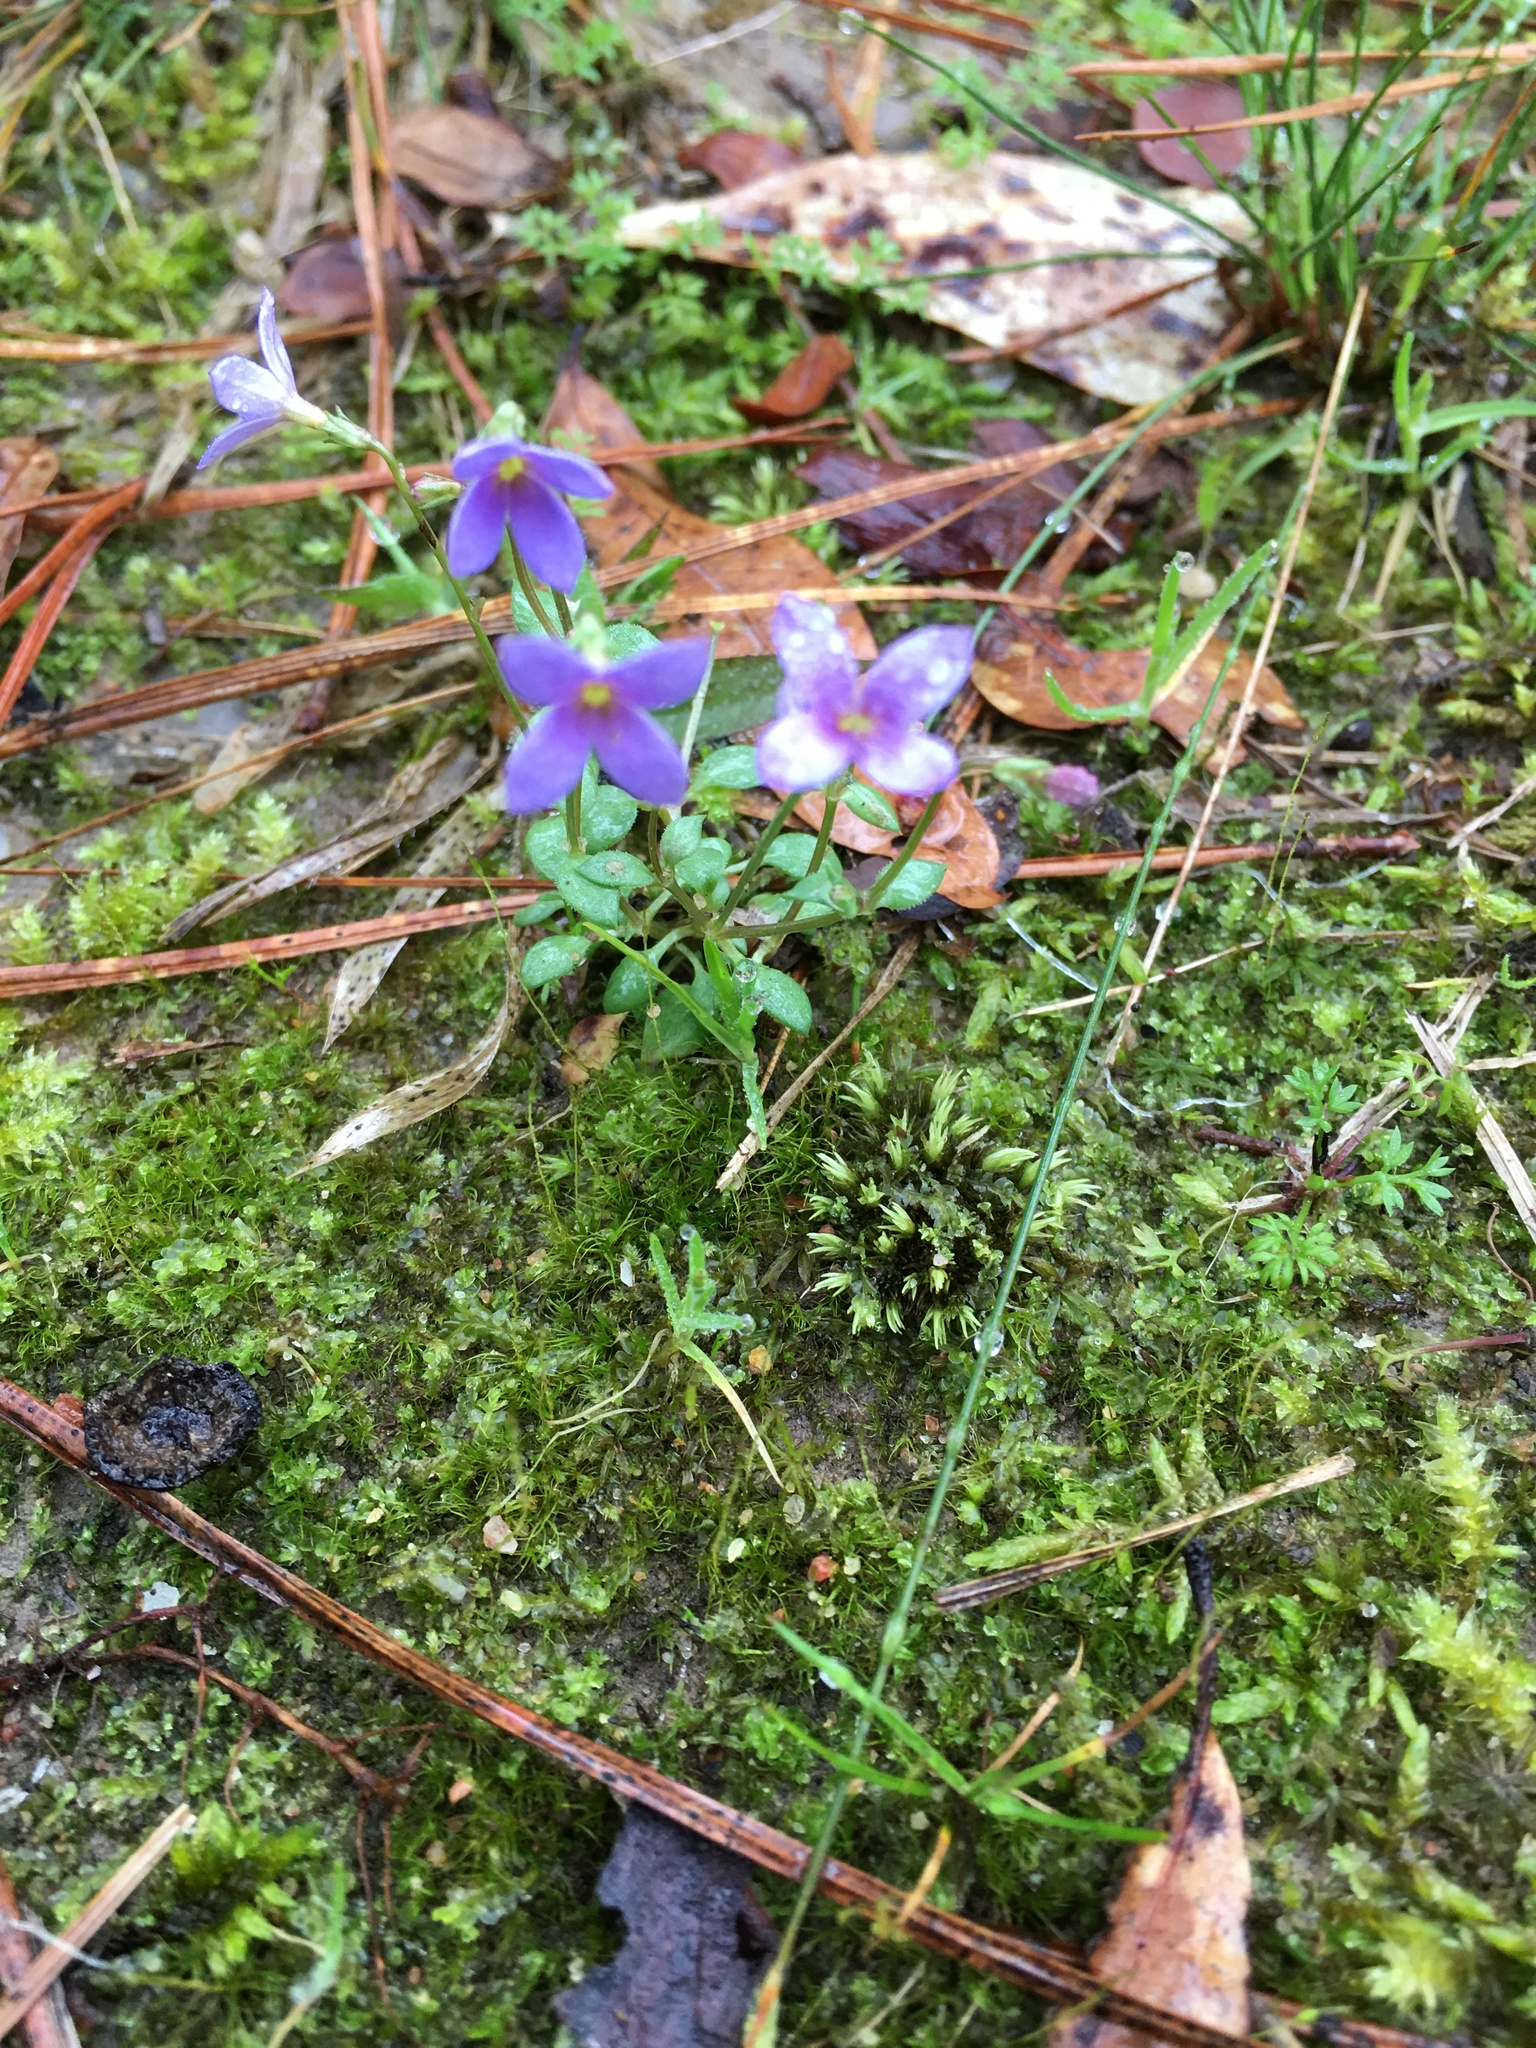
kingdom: Plantae
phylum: Tracheophyta
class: Magnoliopsida
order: Gentianales
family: Rubiaceae
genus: Houstonia
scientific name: Houstonia pusilla
